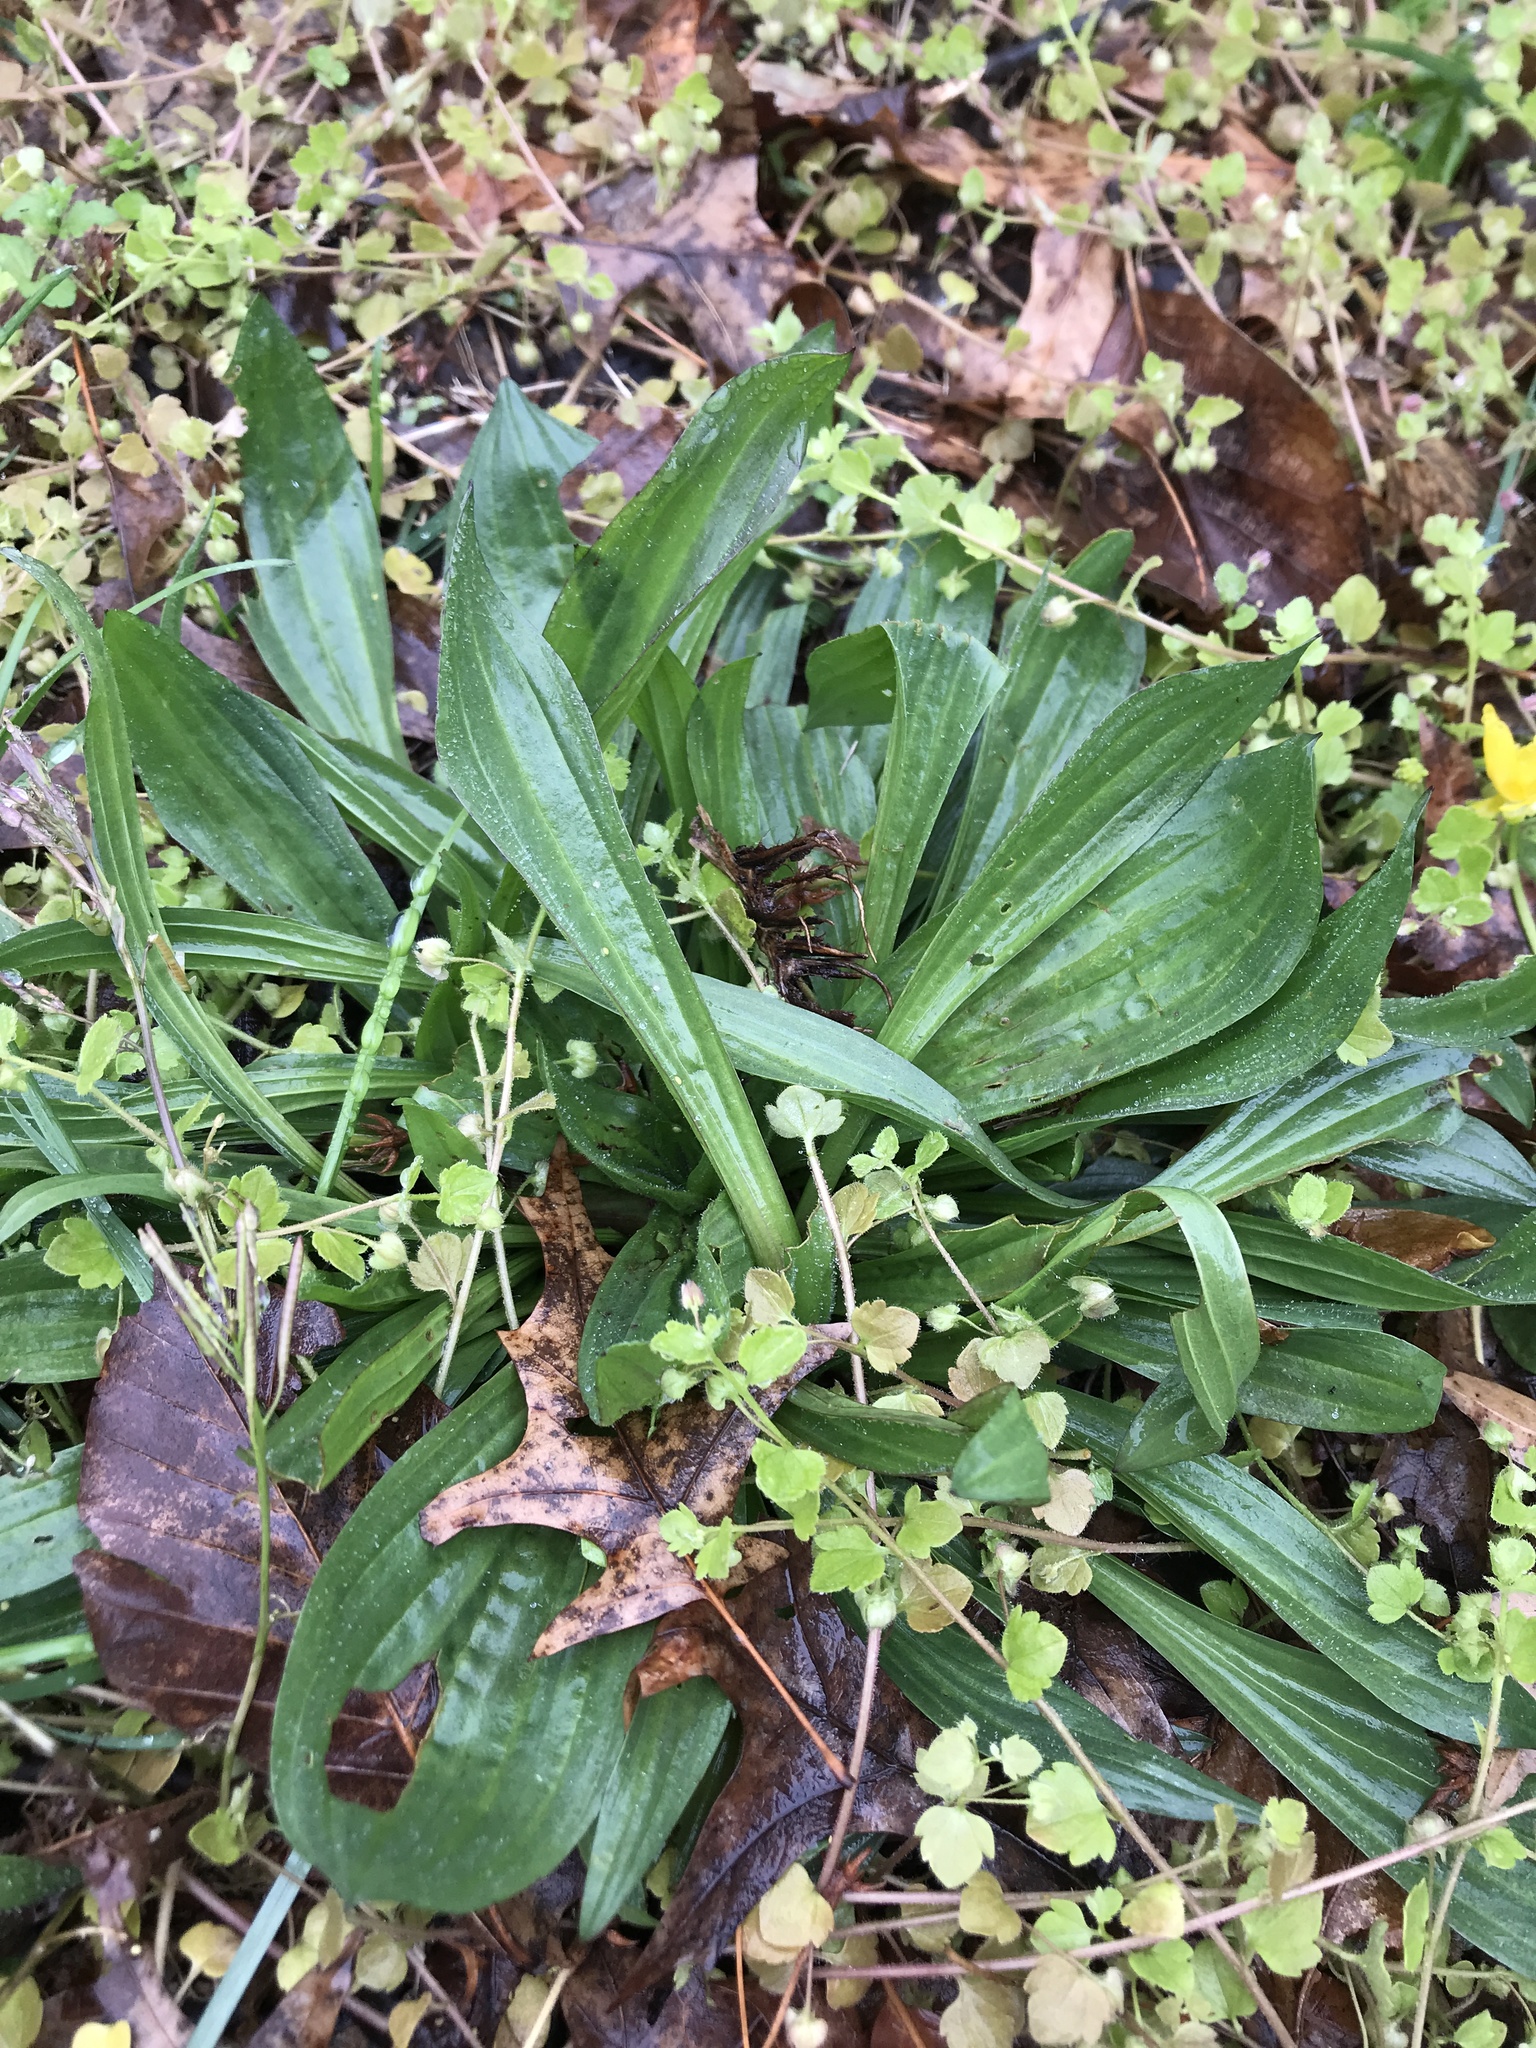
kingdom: Plantae
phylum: Tracheophyta
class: Magnoliopsida
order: Lamiales
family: Plantaginaceae
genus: Plantago
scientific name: Plantago lanceolata
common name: Ribwort plantain
